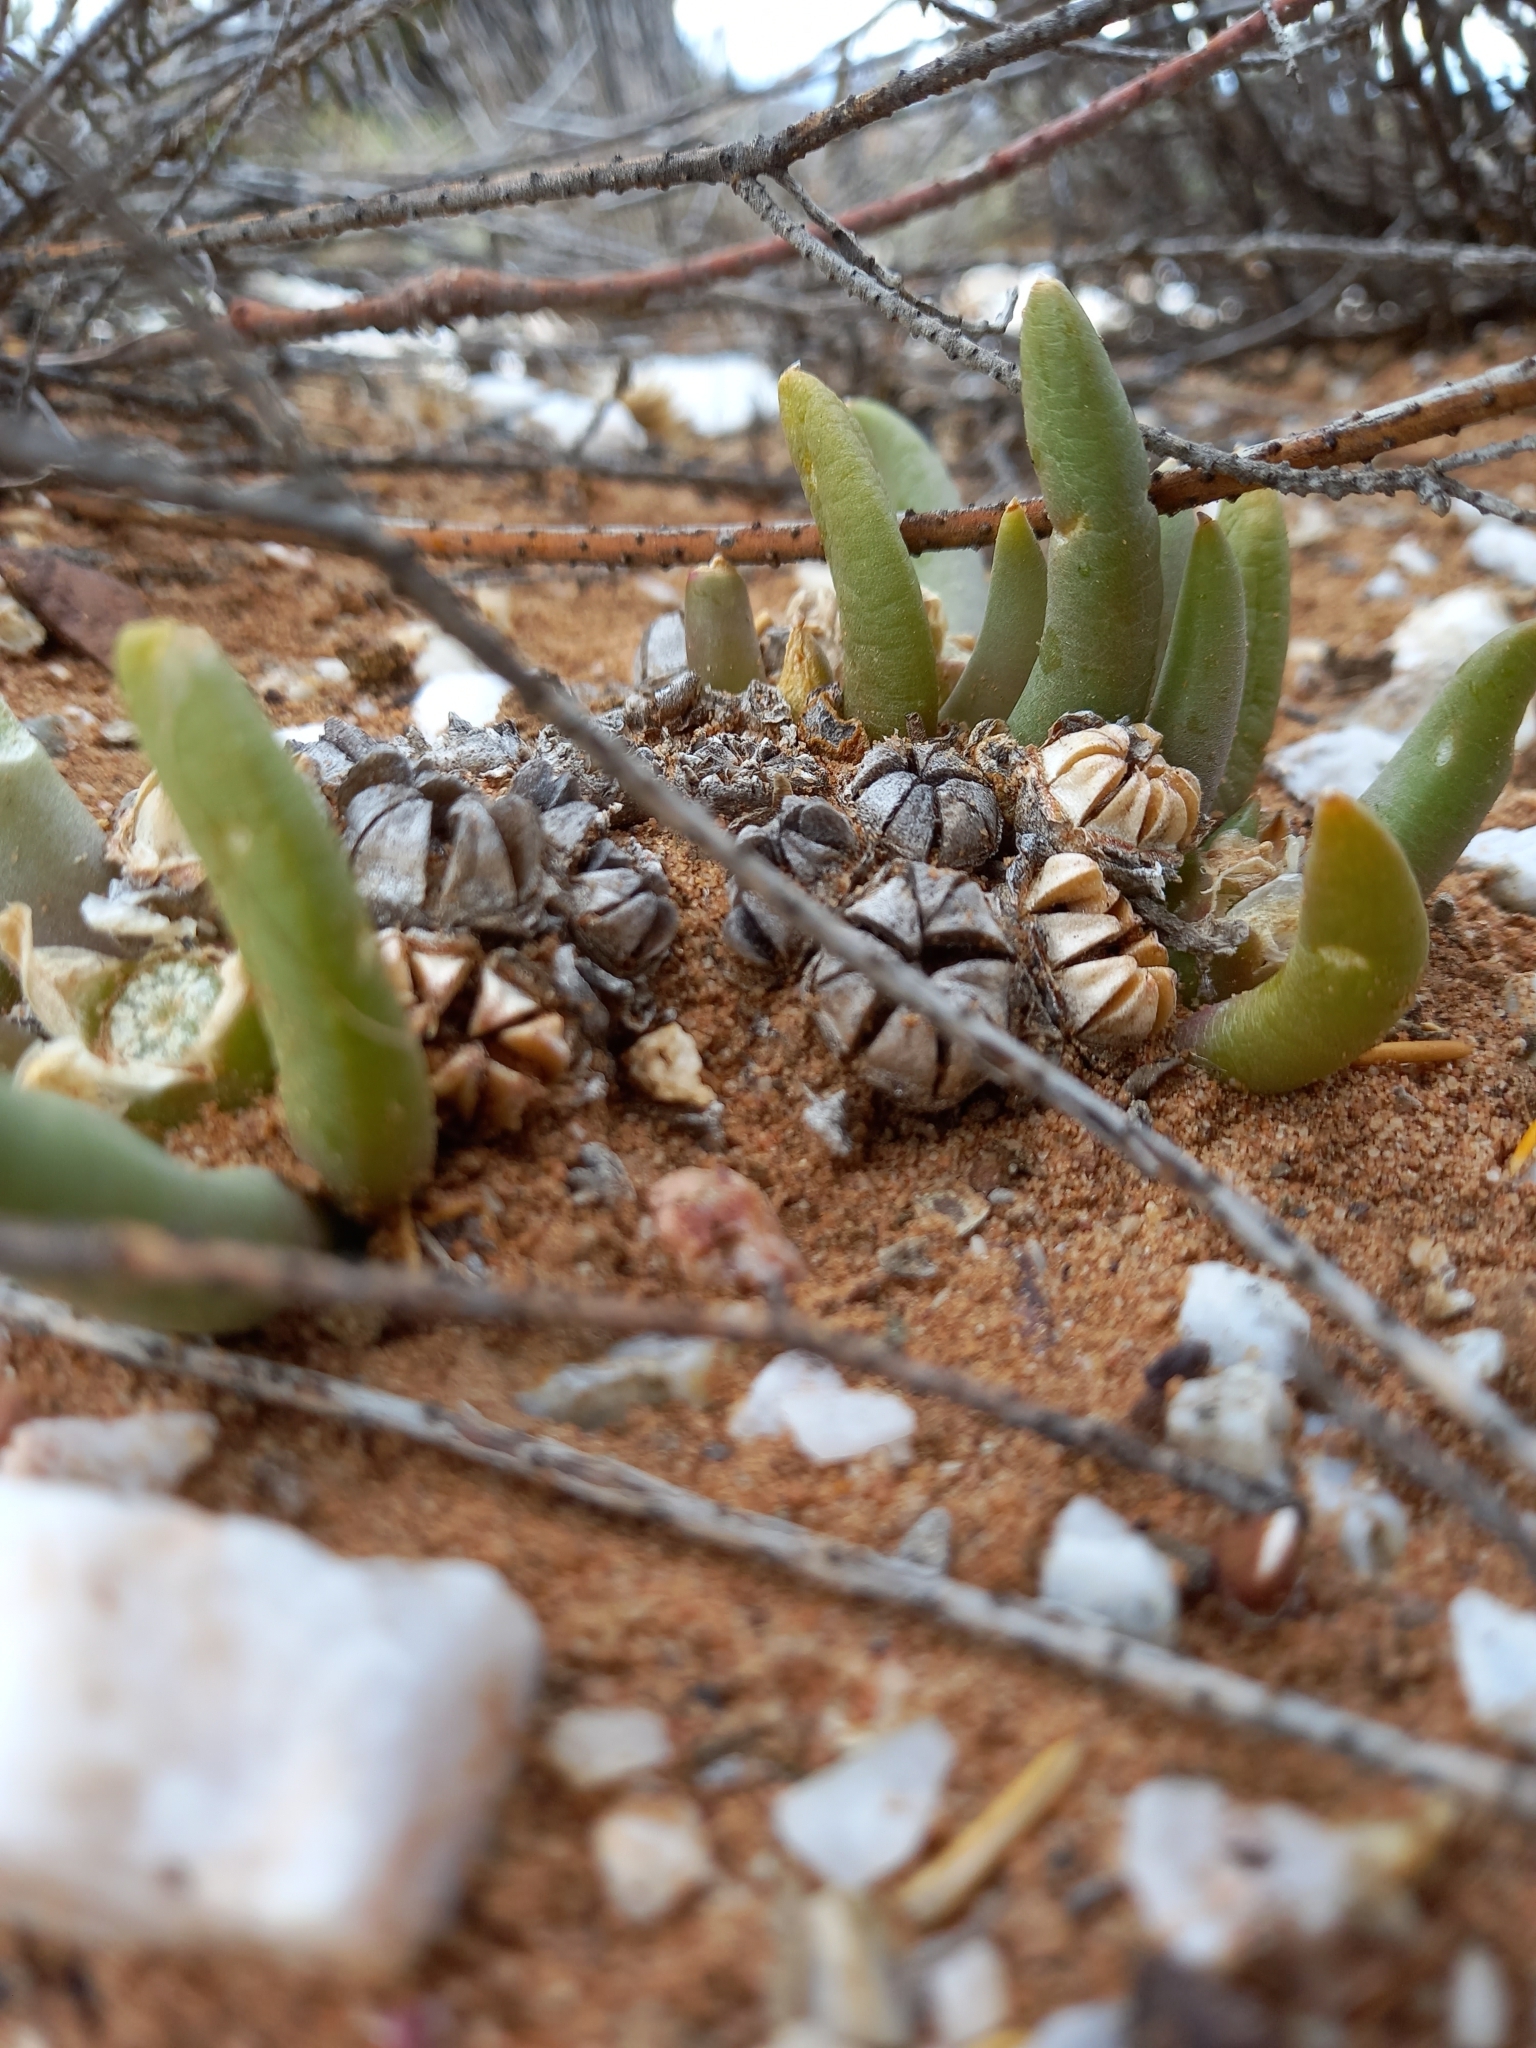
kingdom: Plantae
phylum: Tracheophyta
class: Magnoliopsida
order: Caryophyllales
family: Aizoaceae
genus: Glottiphyllum
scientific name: Glottiphyllum fergusoniae
